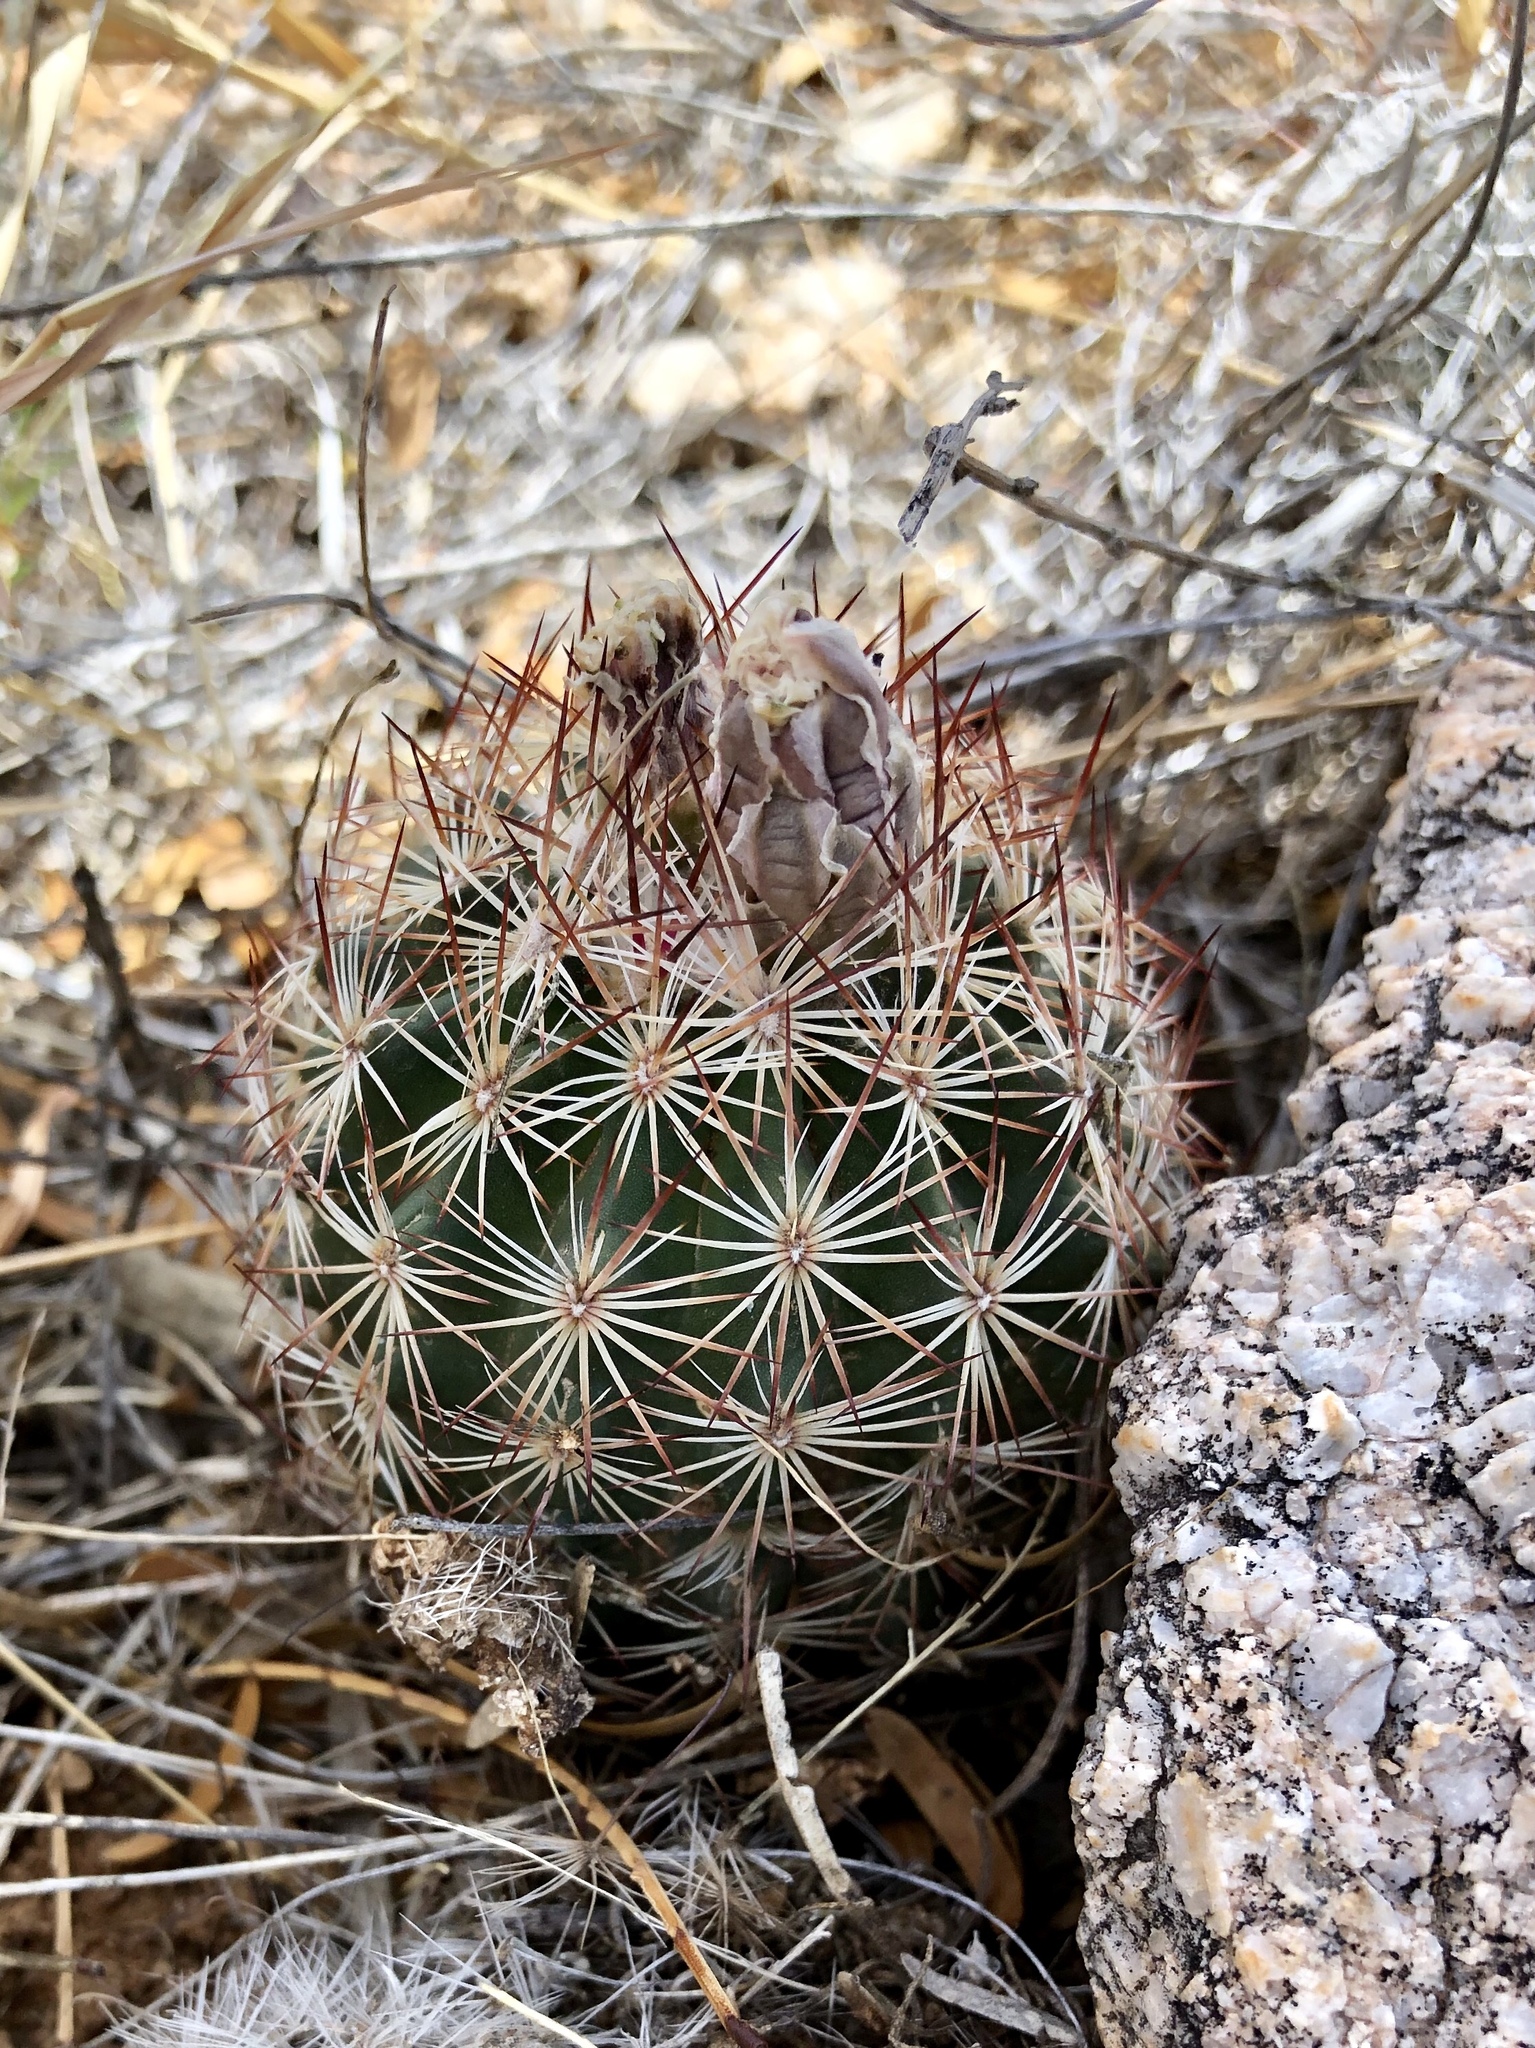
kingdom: Plantae
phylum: Tracheophyta
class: Magnoliopsida
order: Caryophyllales
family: Cactaceae
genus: Sclerocactus
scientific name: Sclerocactus intertextus
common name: White fish-hook cactus
